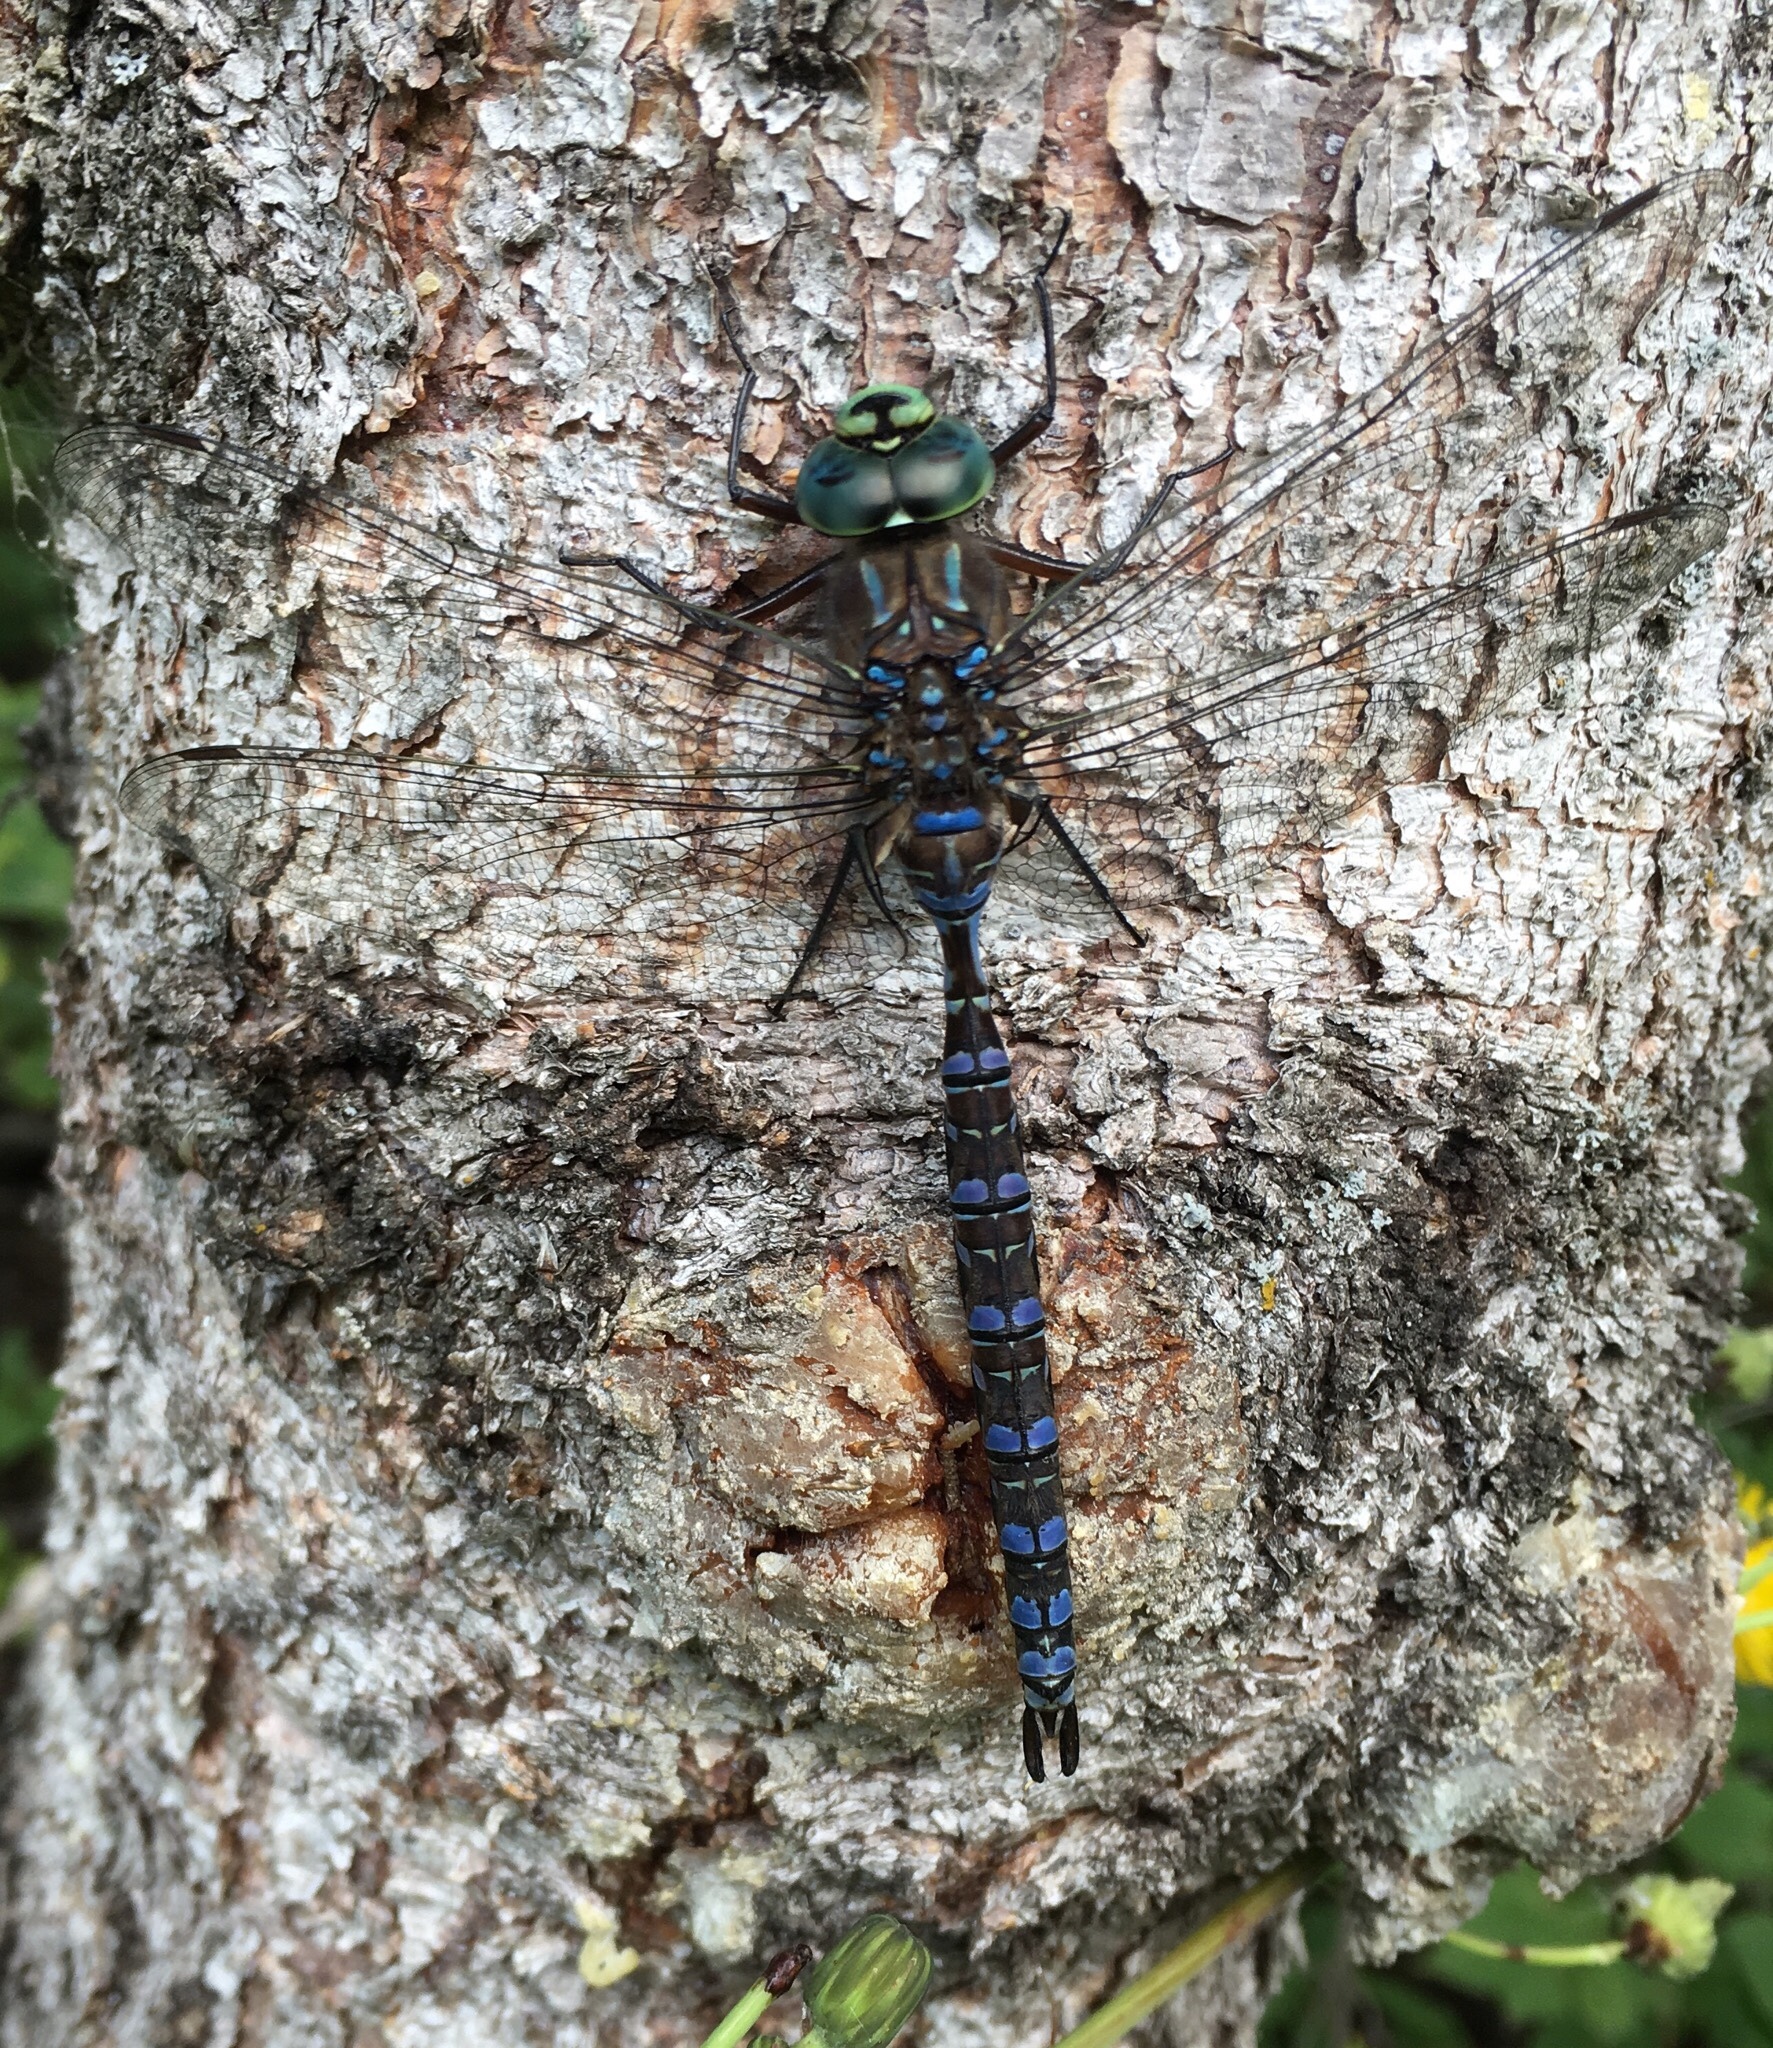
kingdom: Animalia
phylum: Arthropoda
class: Insecta
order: Odonata
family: Aeshnidae
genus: Aeshna
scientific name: Aeshna eremita
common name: Lake darner
